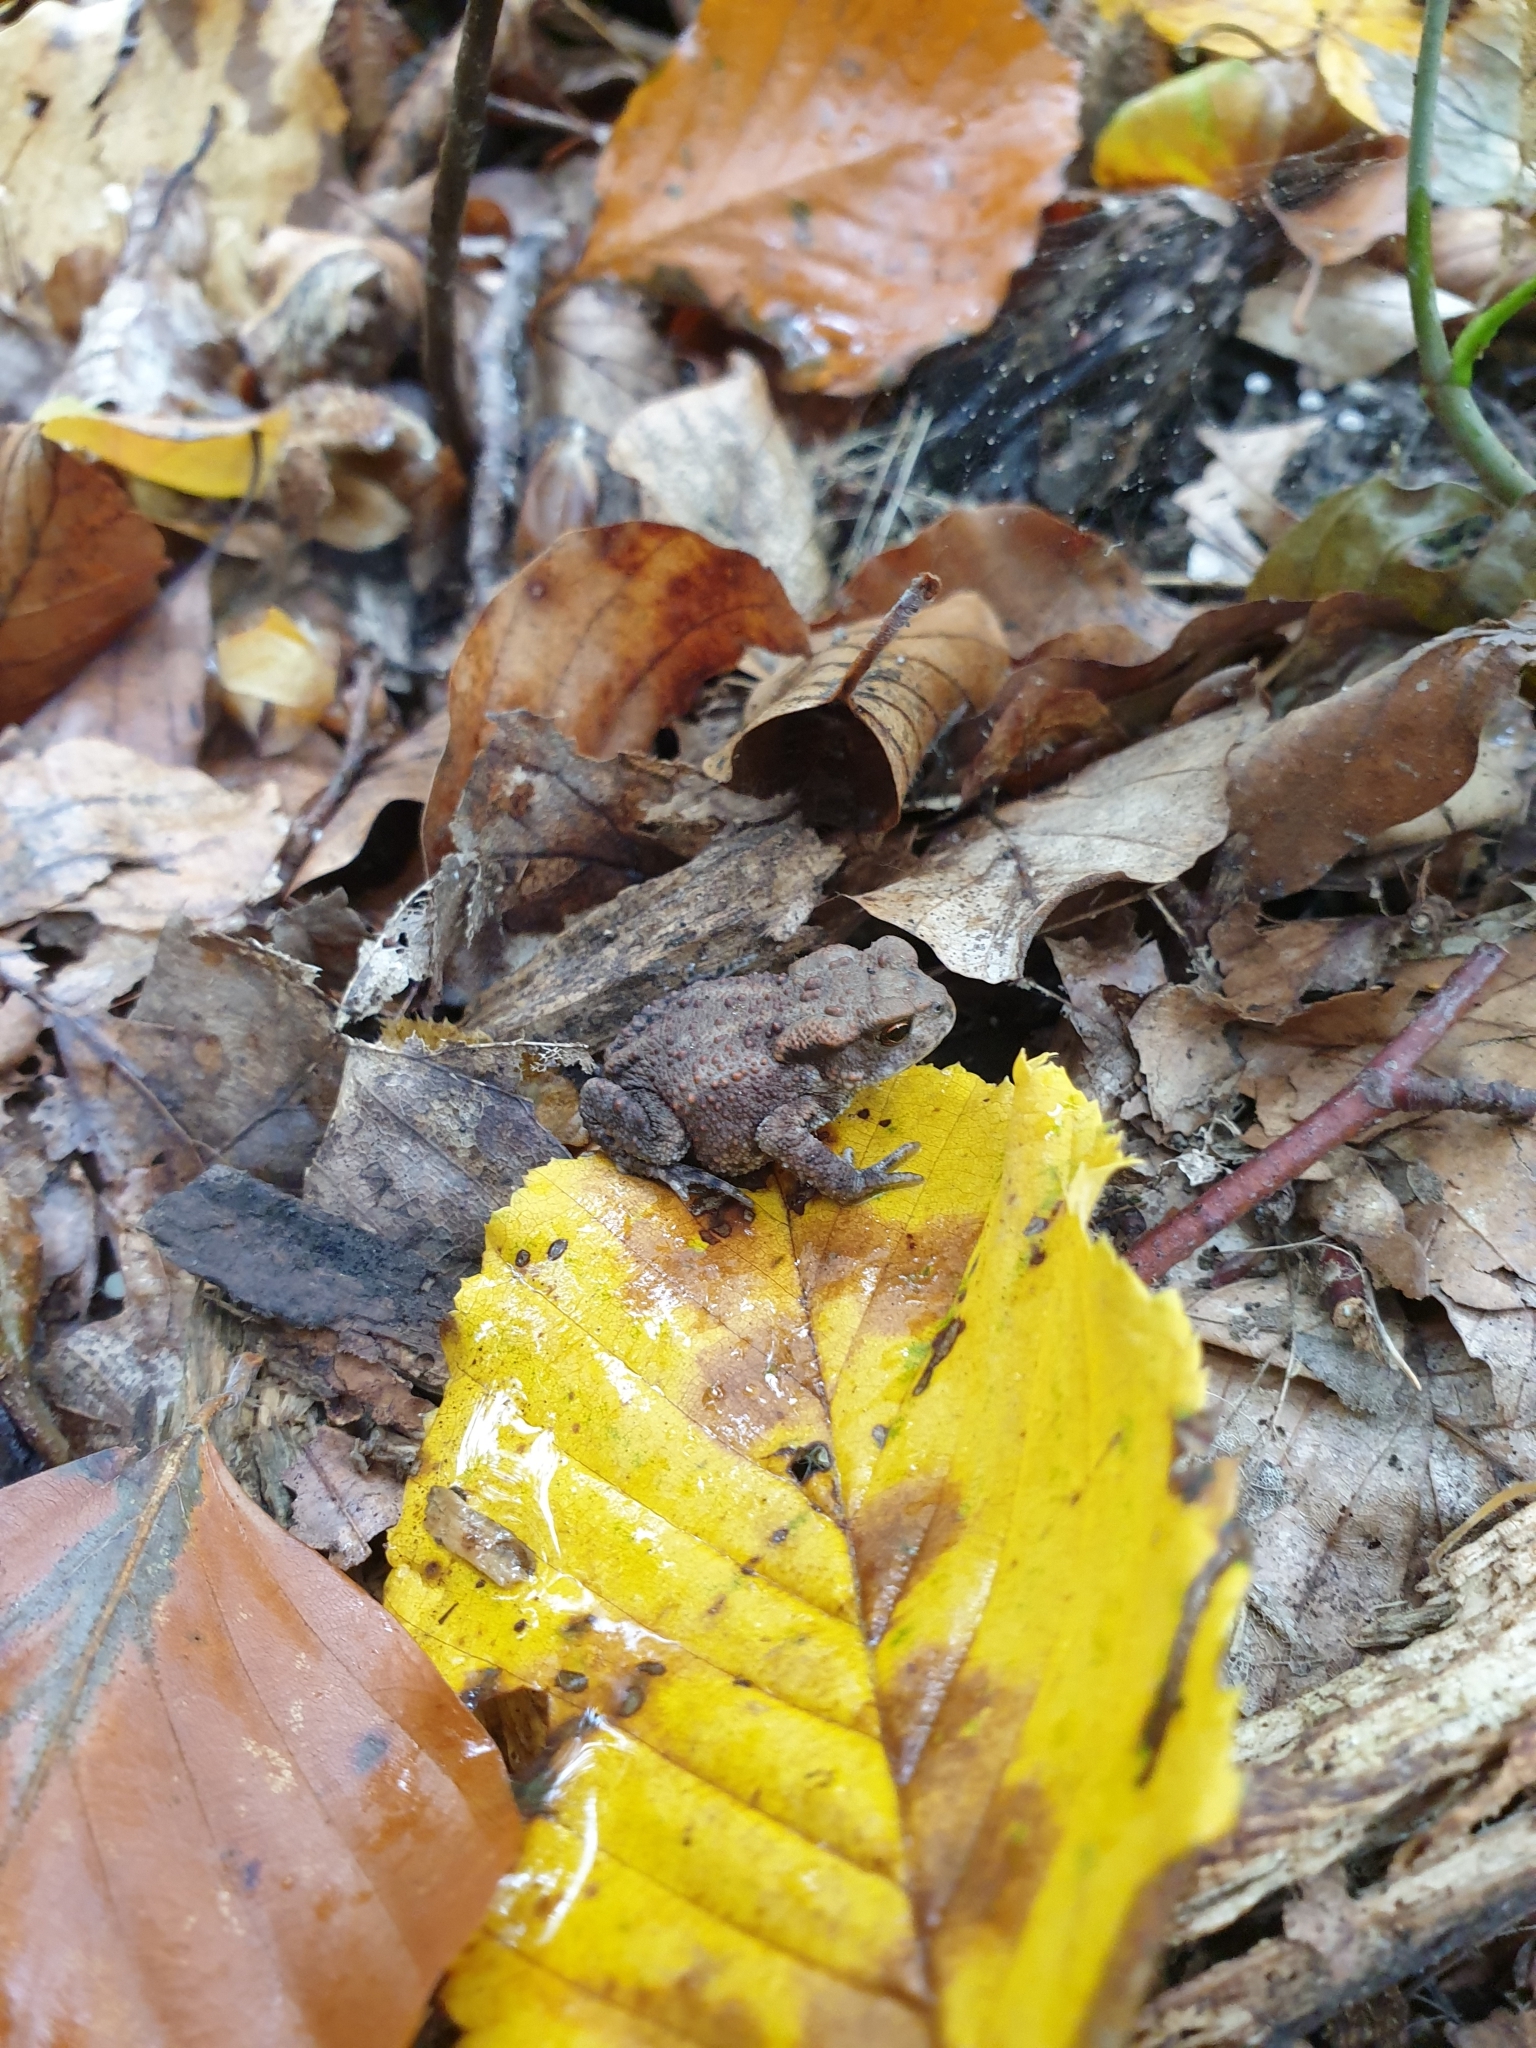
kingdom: Animalia
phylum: Chordata
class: Amphibia
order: Anura
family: Bufonidae
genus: Bufo
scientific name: Bufo bufo
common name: Common toad
